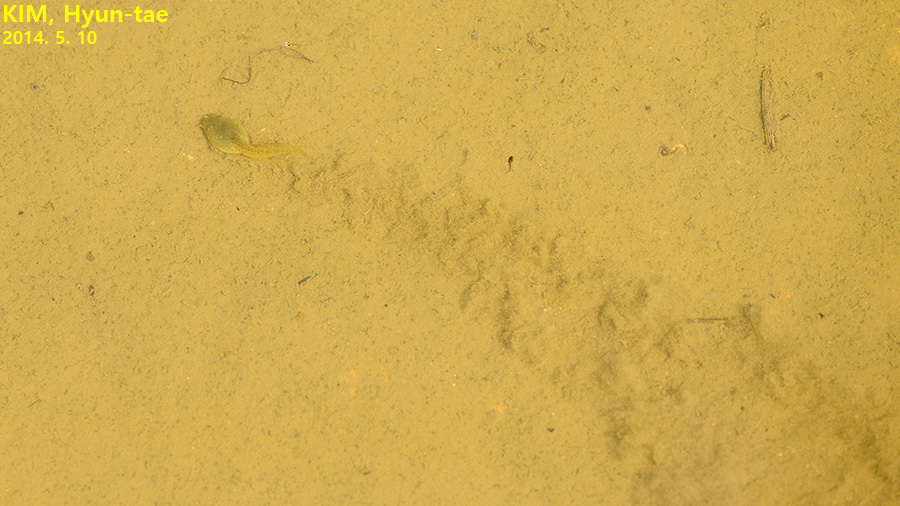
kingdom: Animalia
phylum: Chordata
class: Amphibia
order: Anura
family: Ranidae
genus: Lithobates
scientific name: Lithobates catesbeianus
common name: American bullfrog
